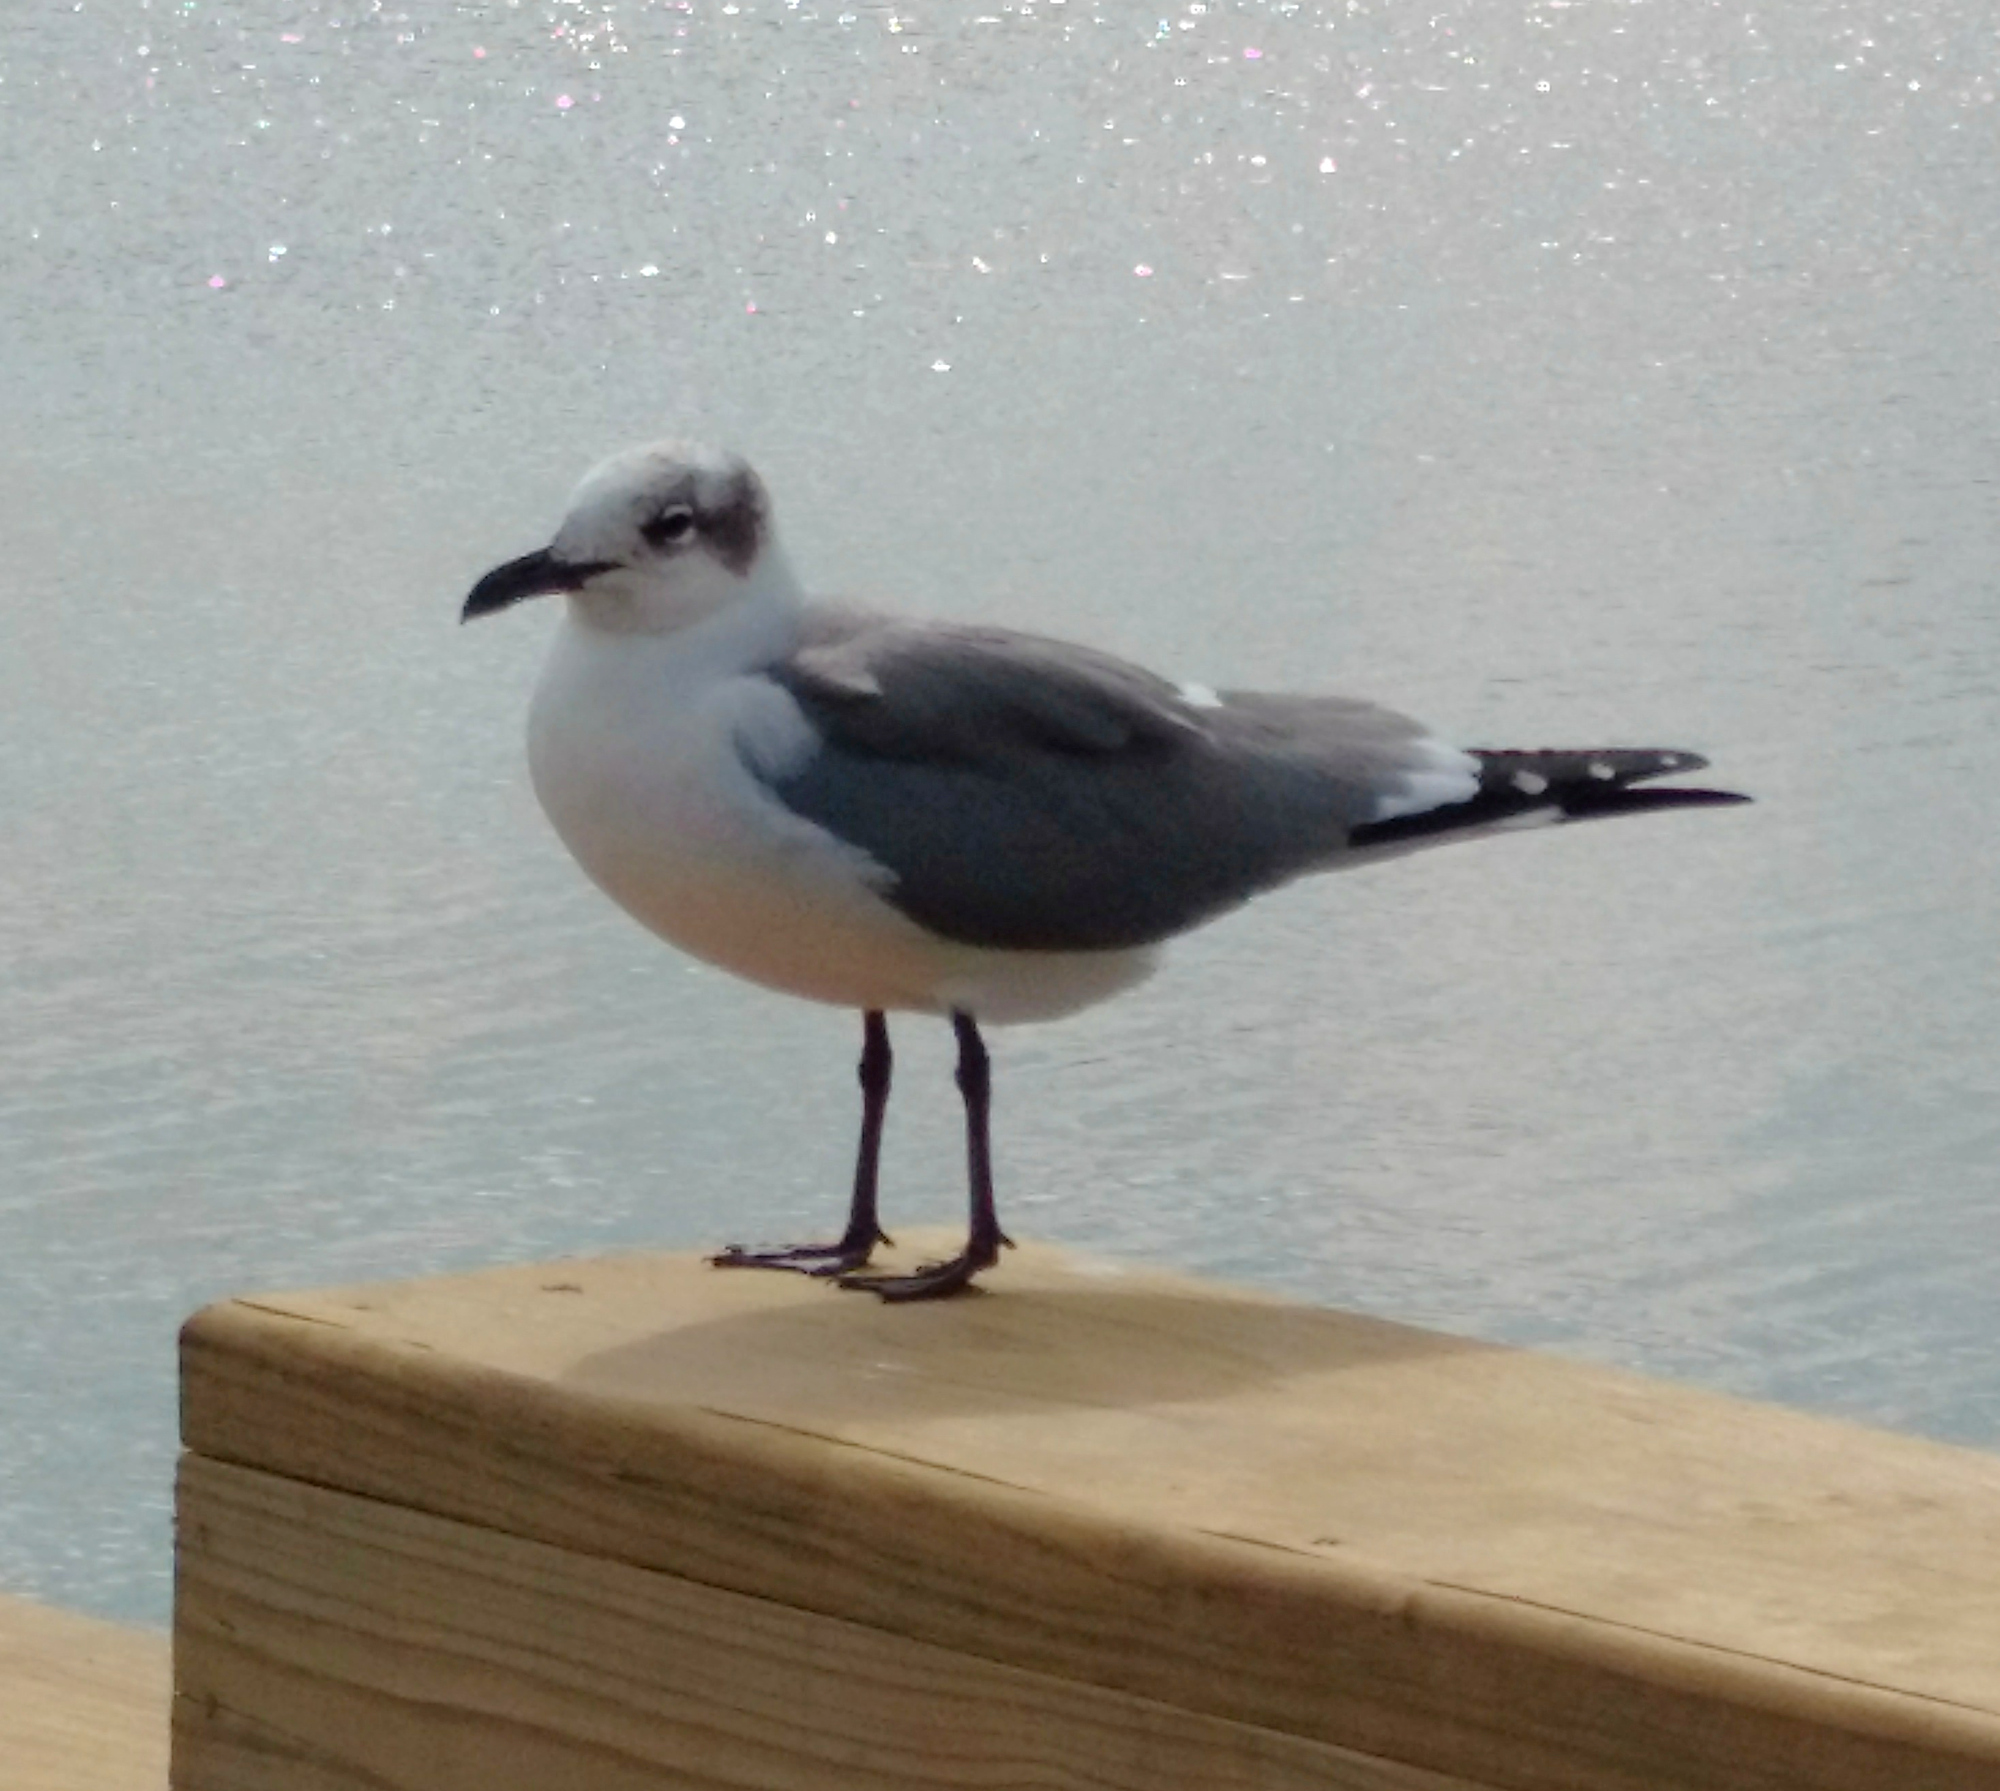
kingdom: Animalia
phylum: Chordata
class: Aves
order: Charadriiformes
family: Laridae
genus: Leucophaeus
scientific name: Leucophaeus atricilla
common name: Laughing gull
